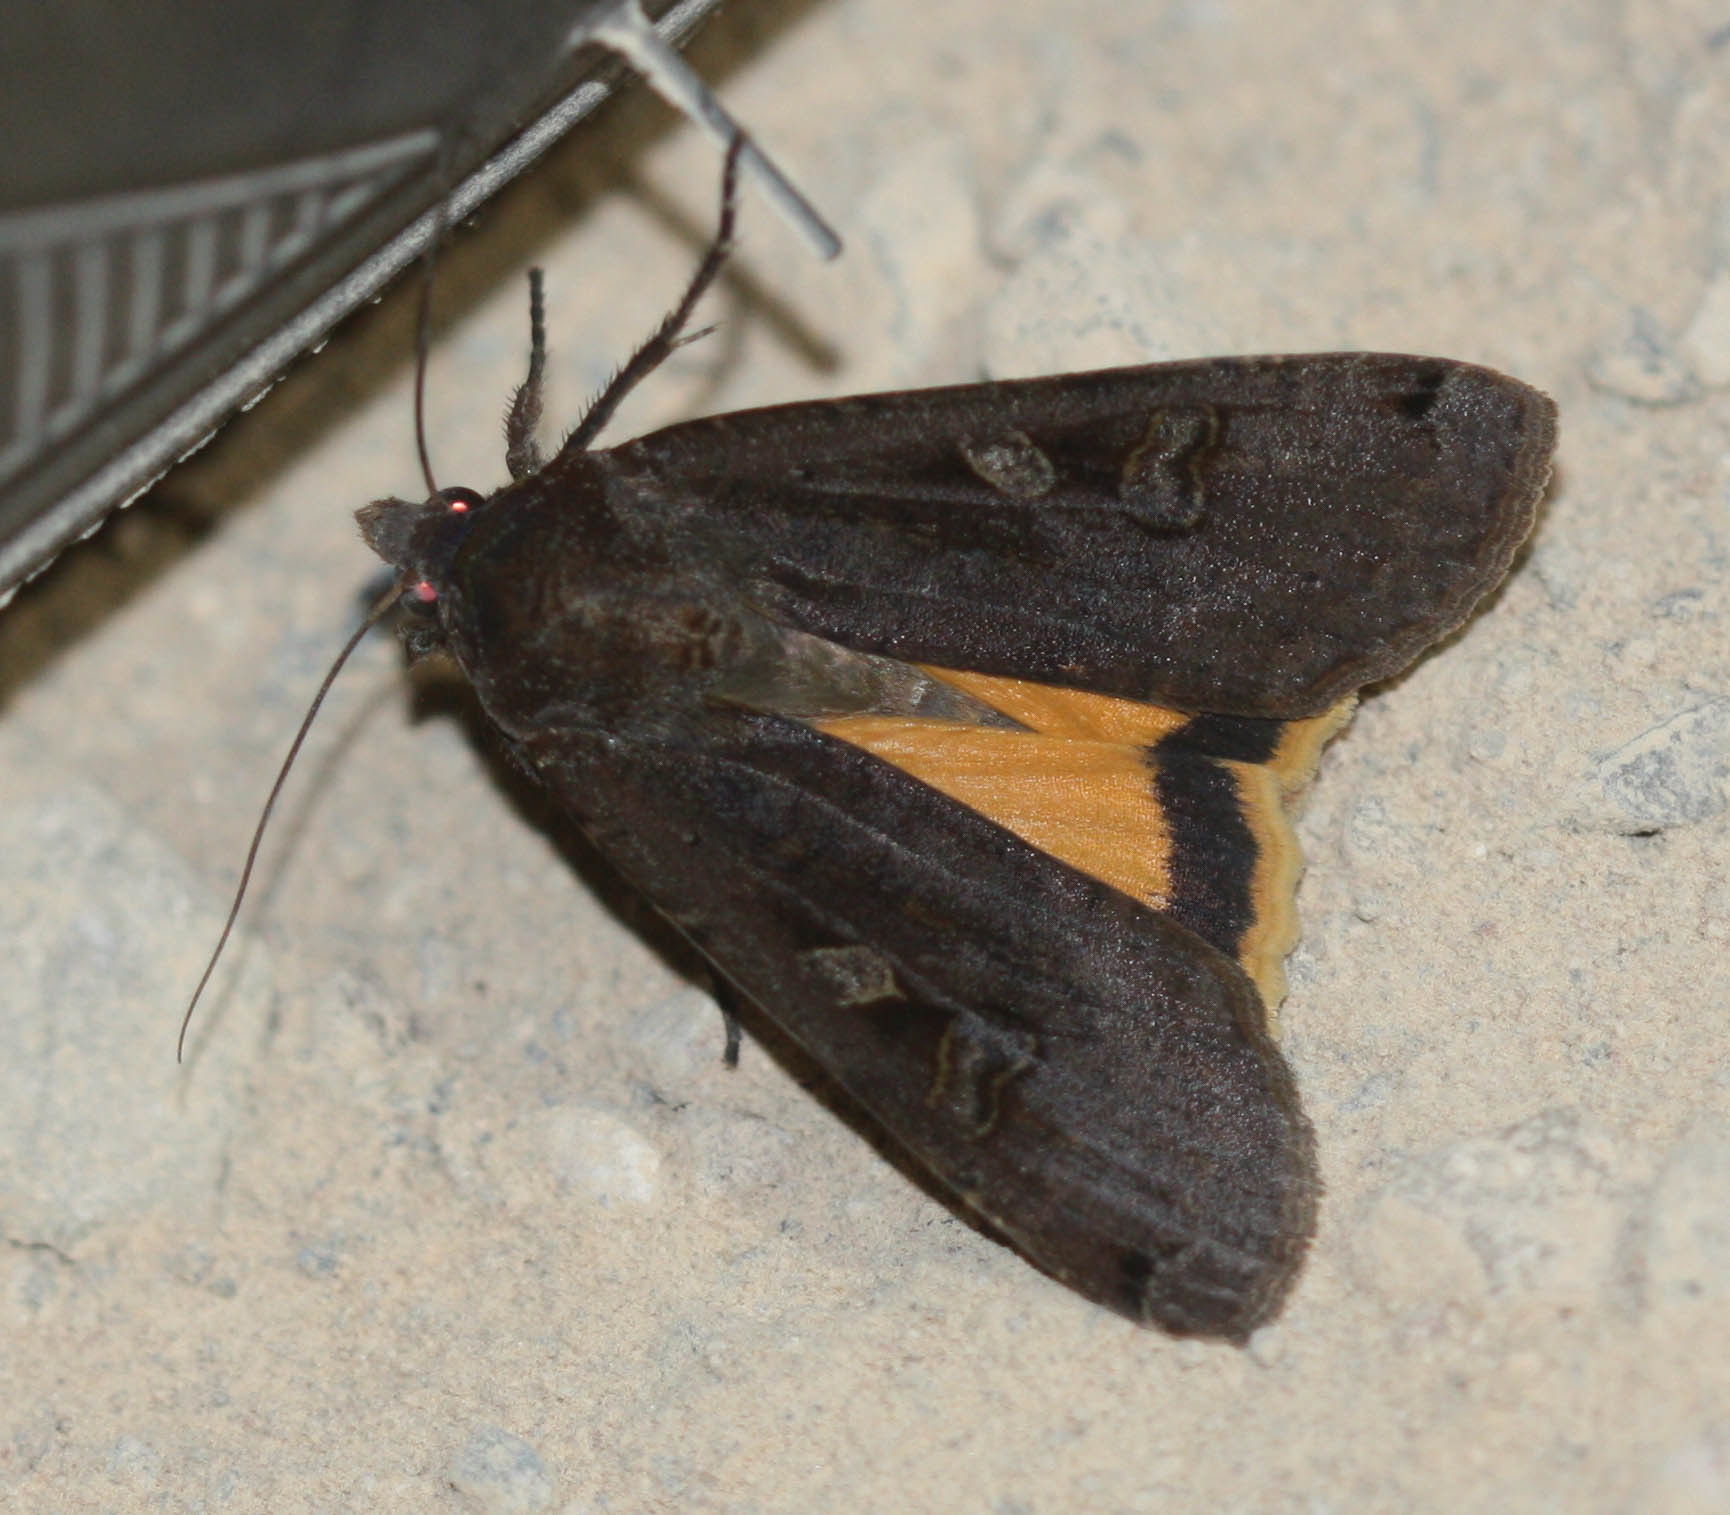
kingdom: Animalia
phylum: Arthropoda
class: Insecta
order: Lepidoptera
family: Noctuidae
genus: Noctua
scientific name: Noctua pronuba
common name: Large yellow underwing
